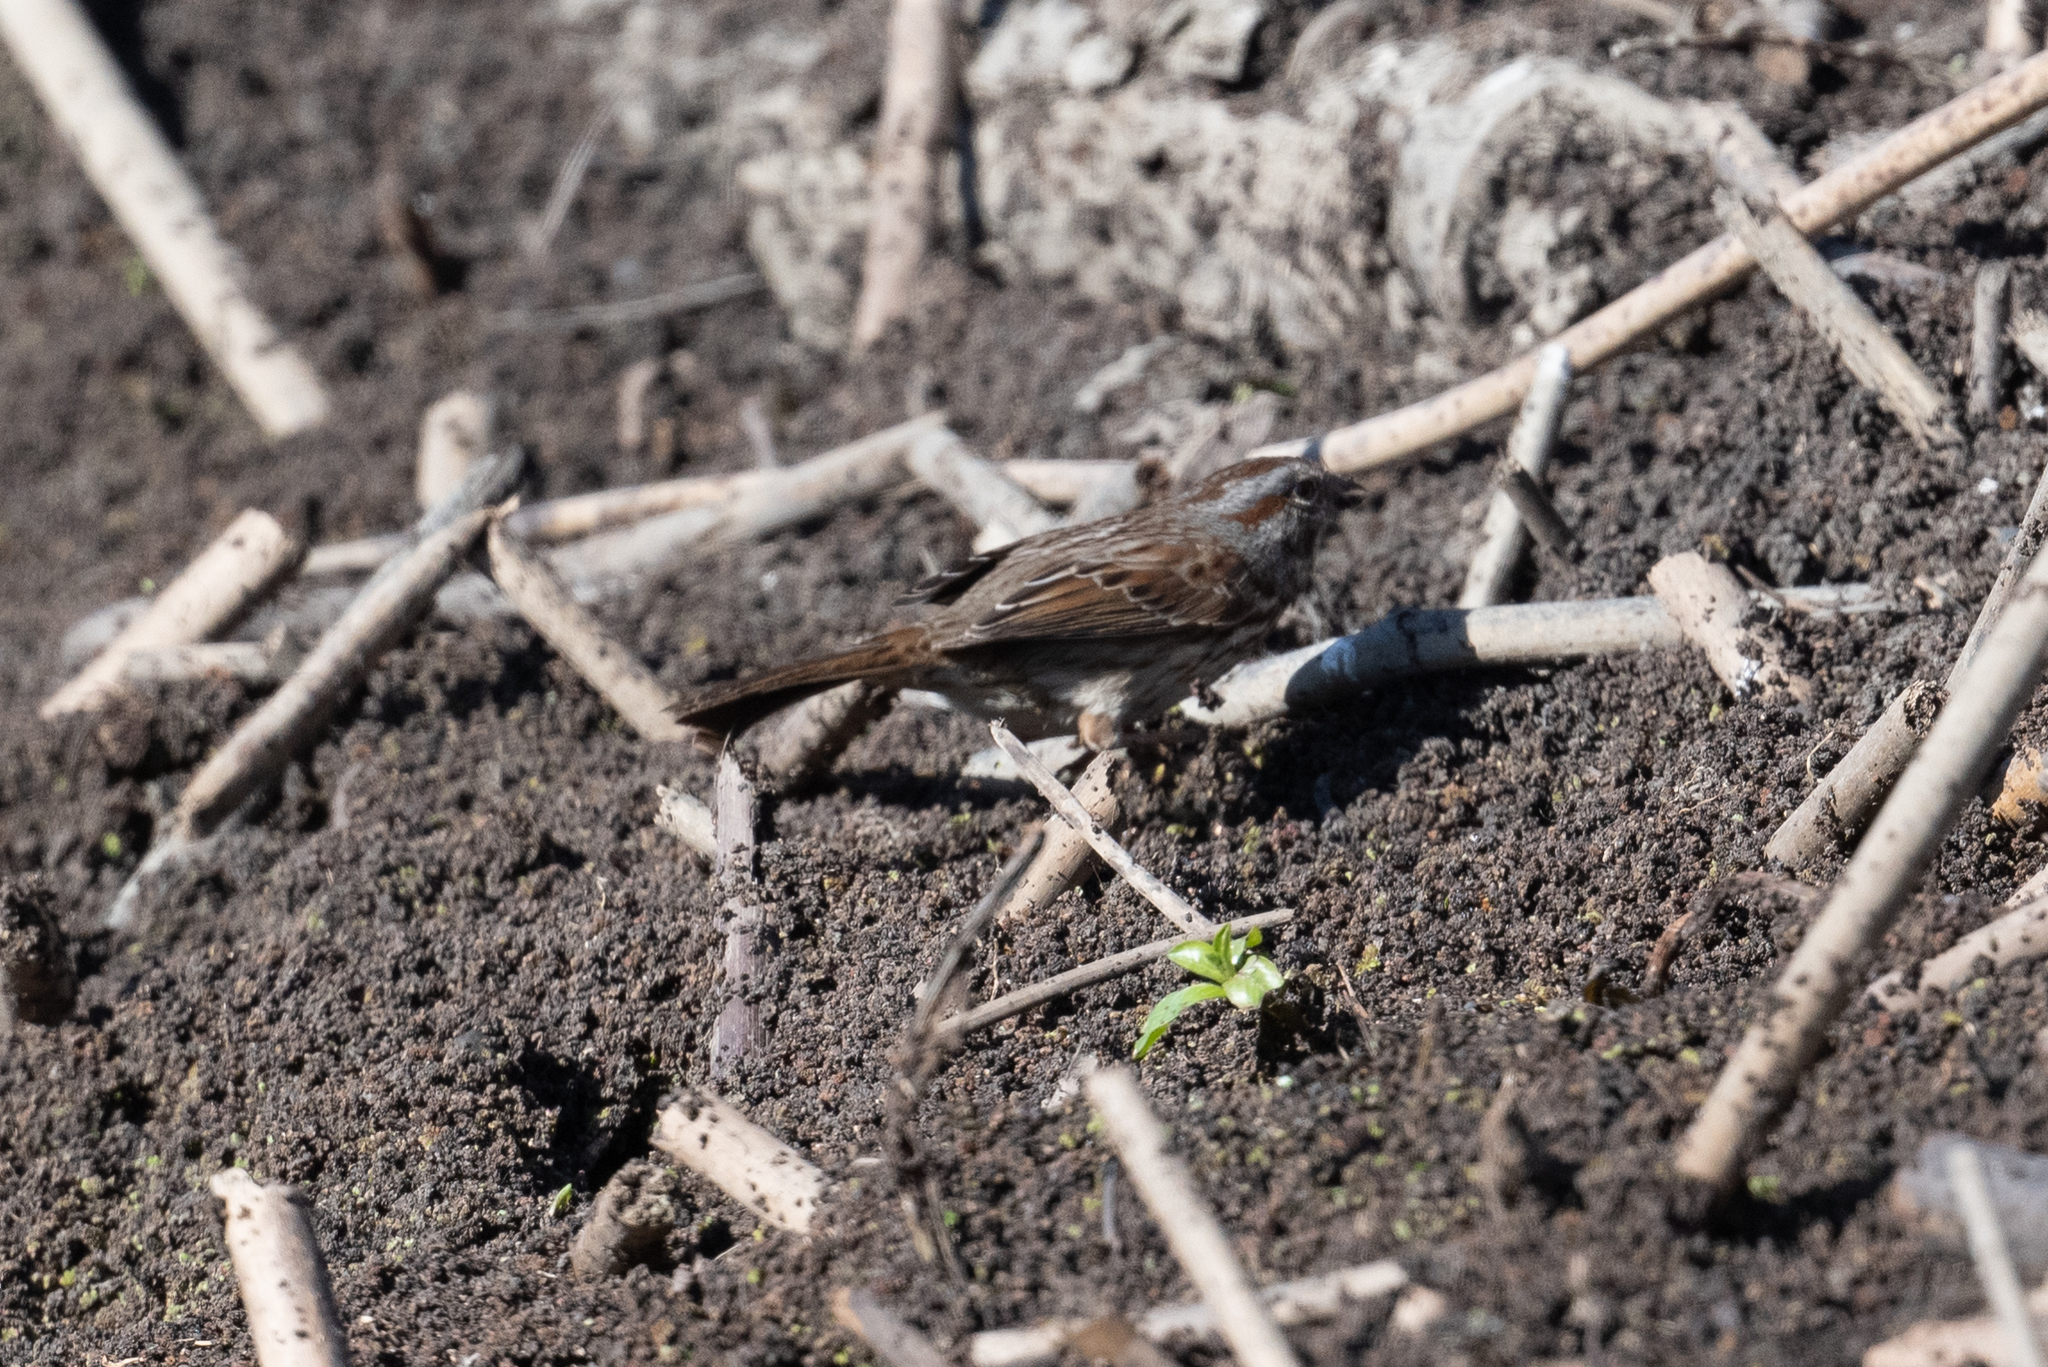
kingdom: Animalia
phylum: Chordata
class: Aves
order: Passeriformes
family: Passerellidae
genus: Melospiza
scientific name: Melospiza melodia
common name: Song sparrow
